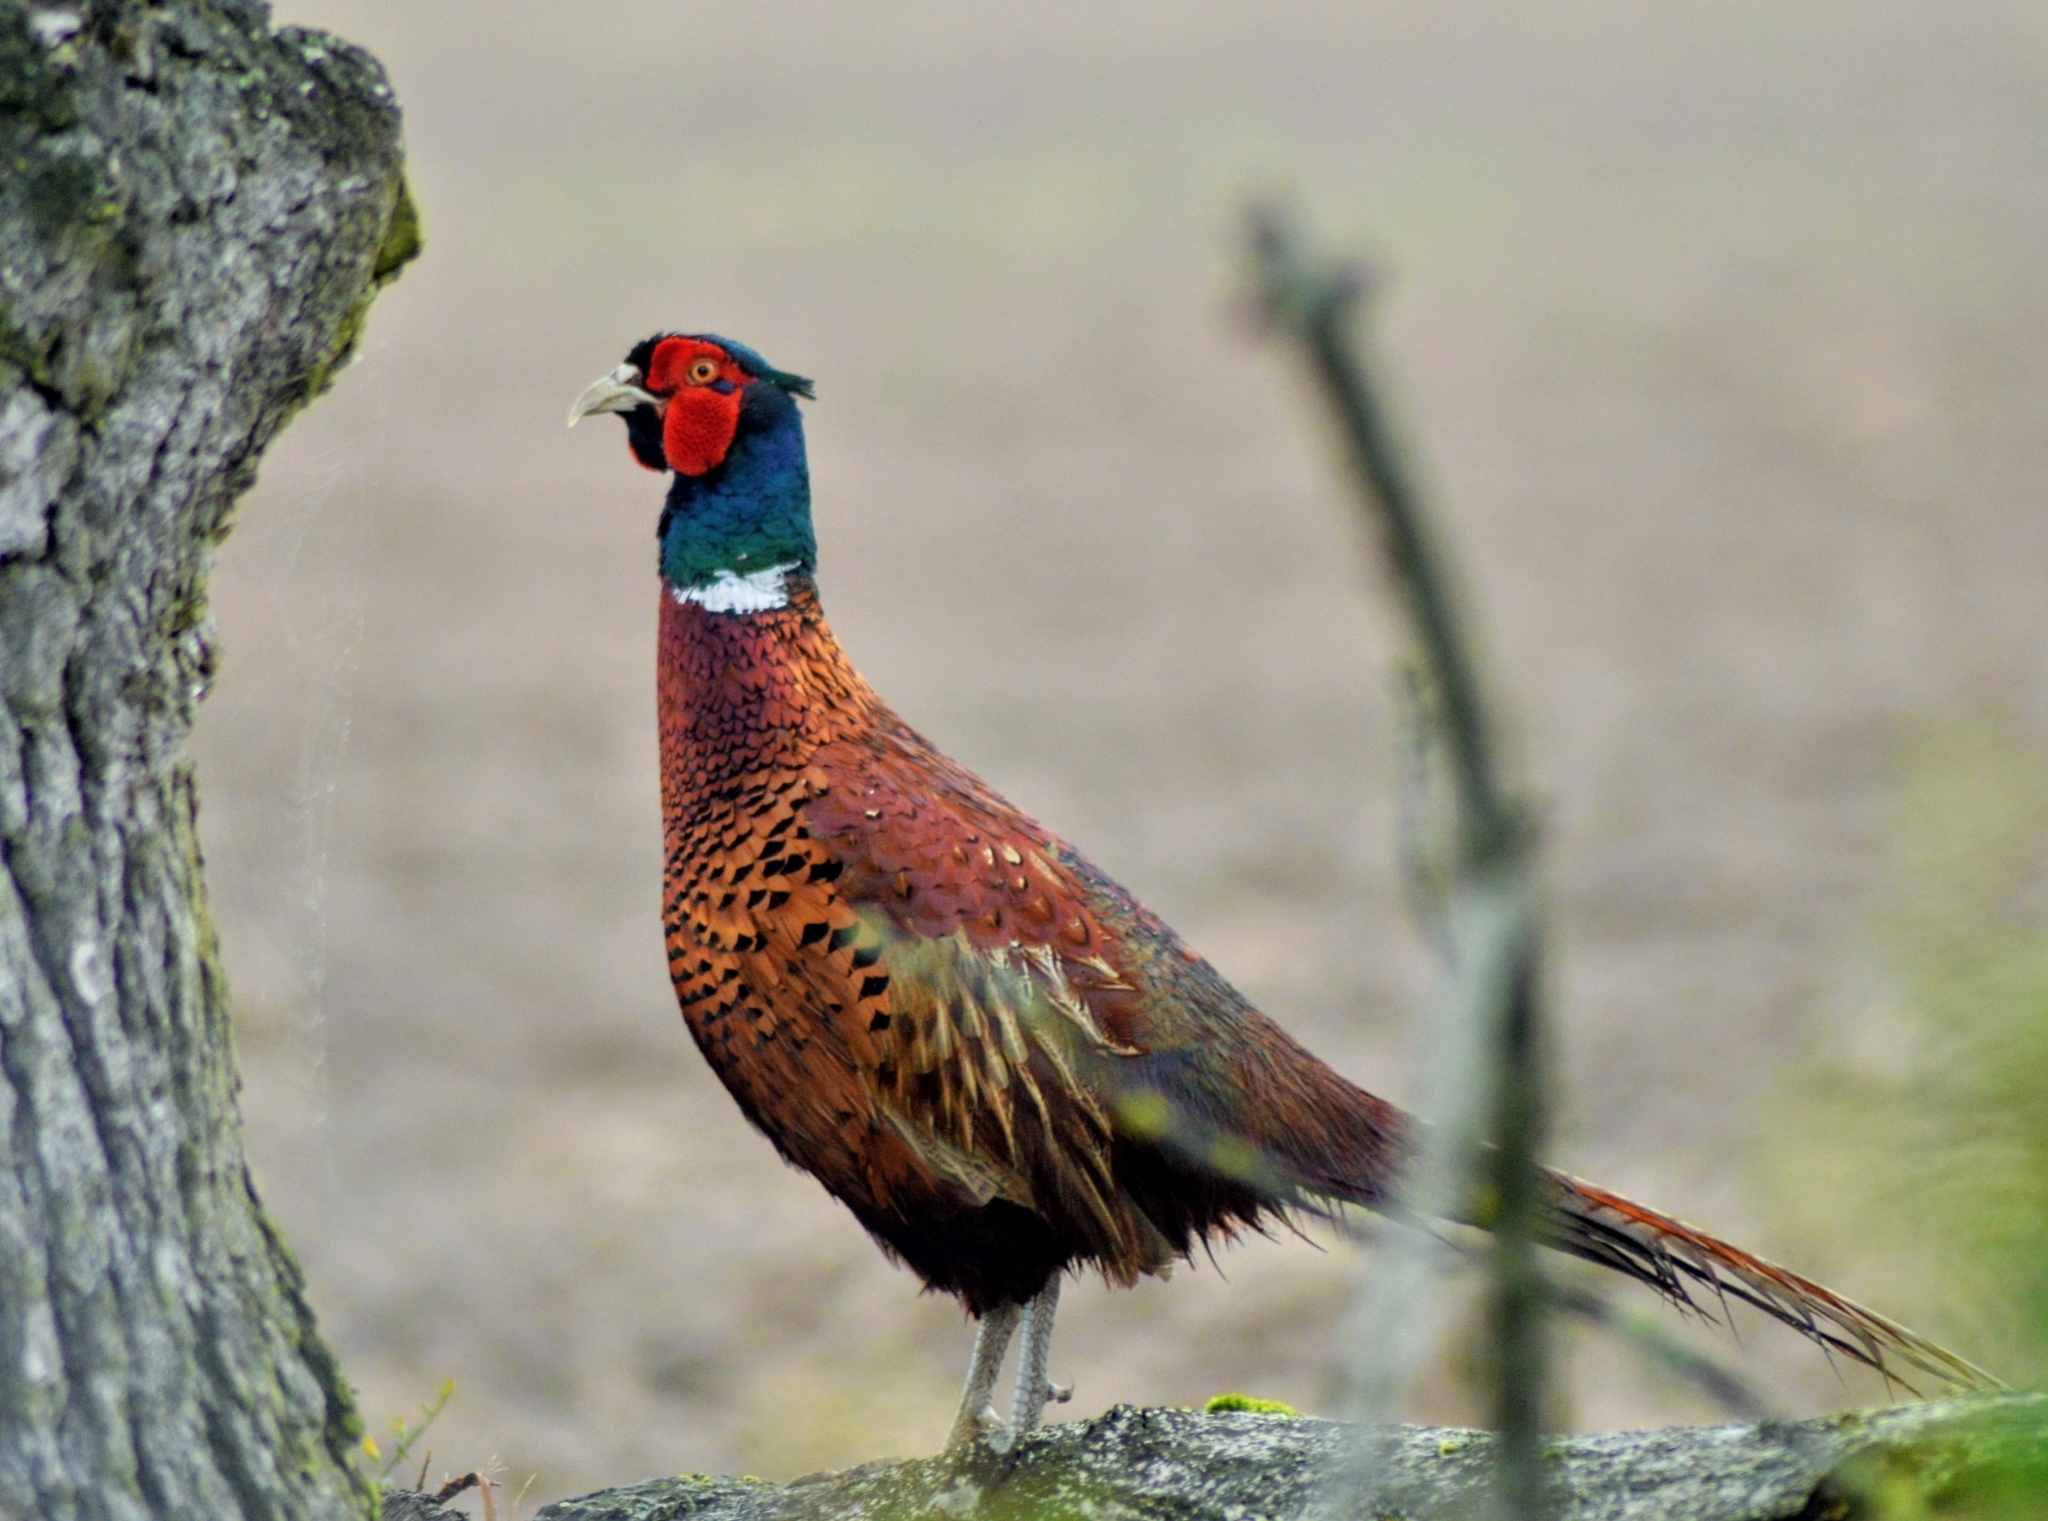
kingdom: Animalia
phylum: Chordata
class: Aves
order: Galliformes
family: Phasianidae
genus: Phasianus
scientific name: Phasianus colchicus
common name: Common pheasant
